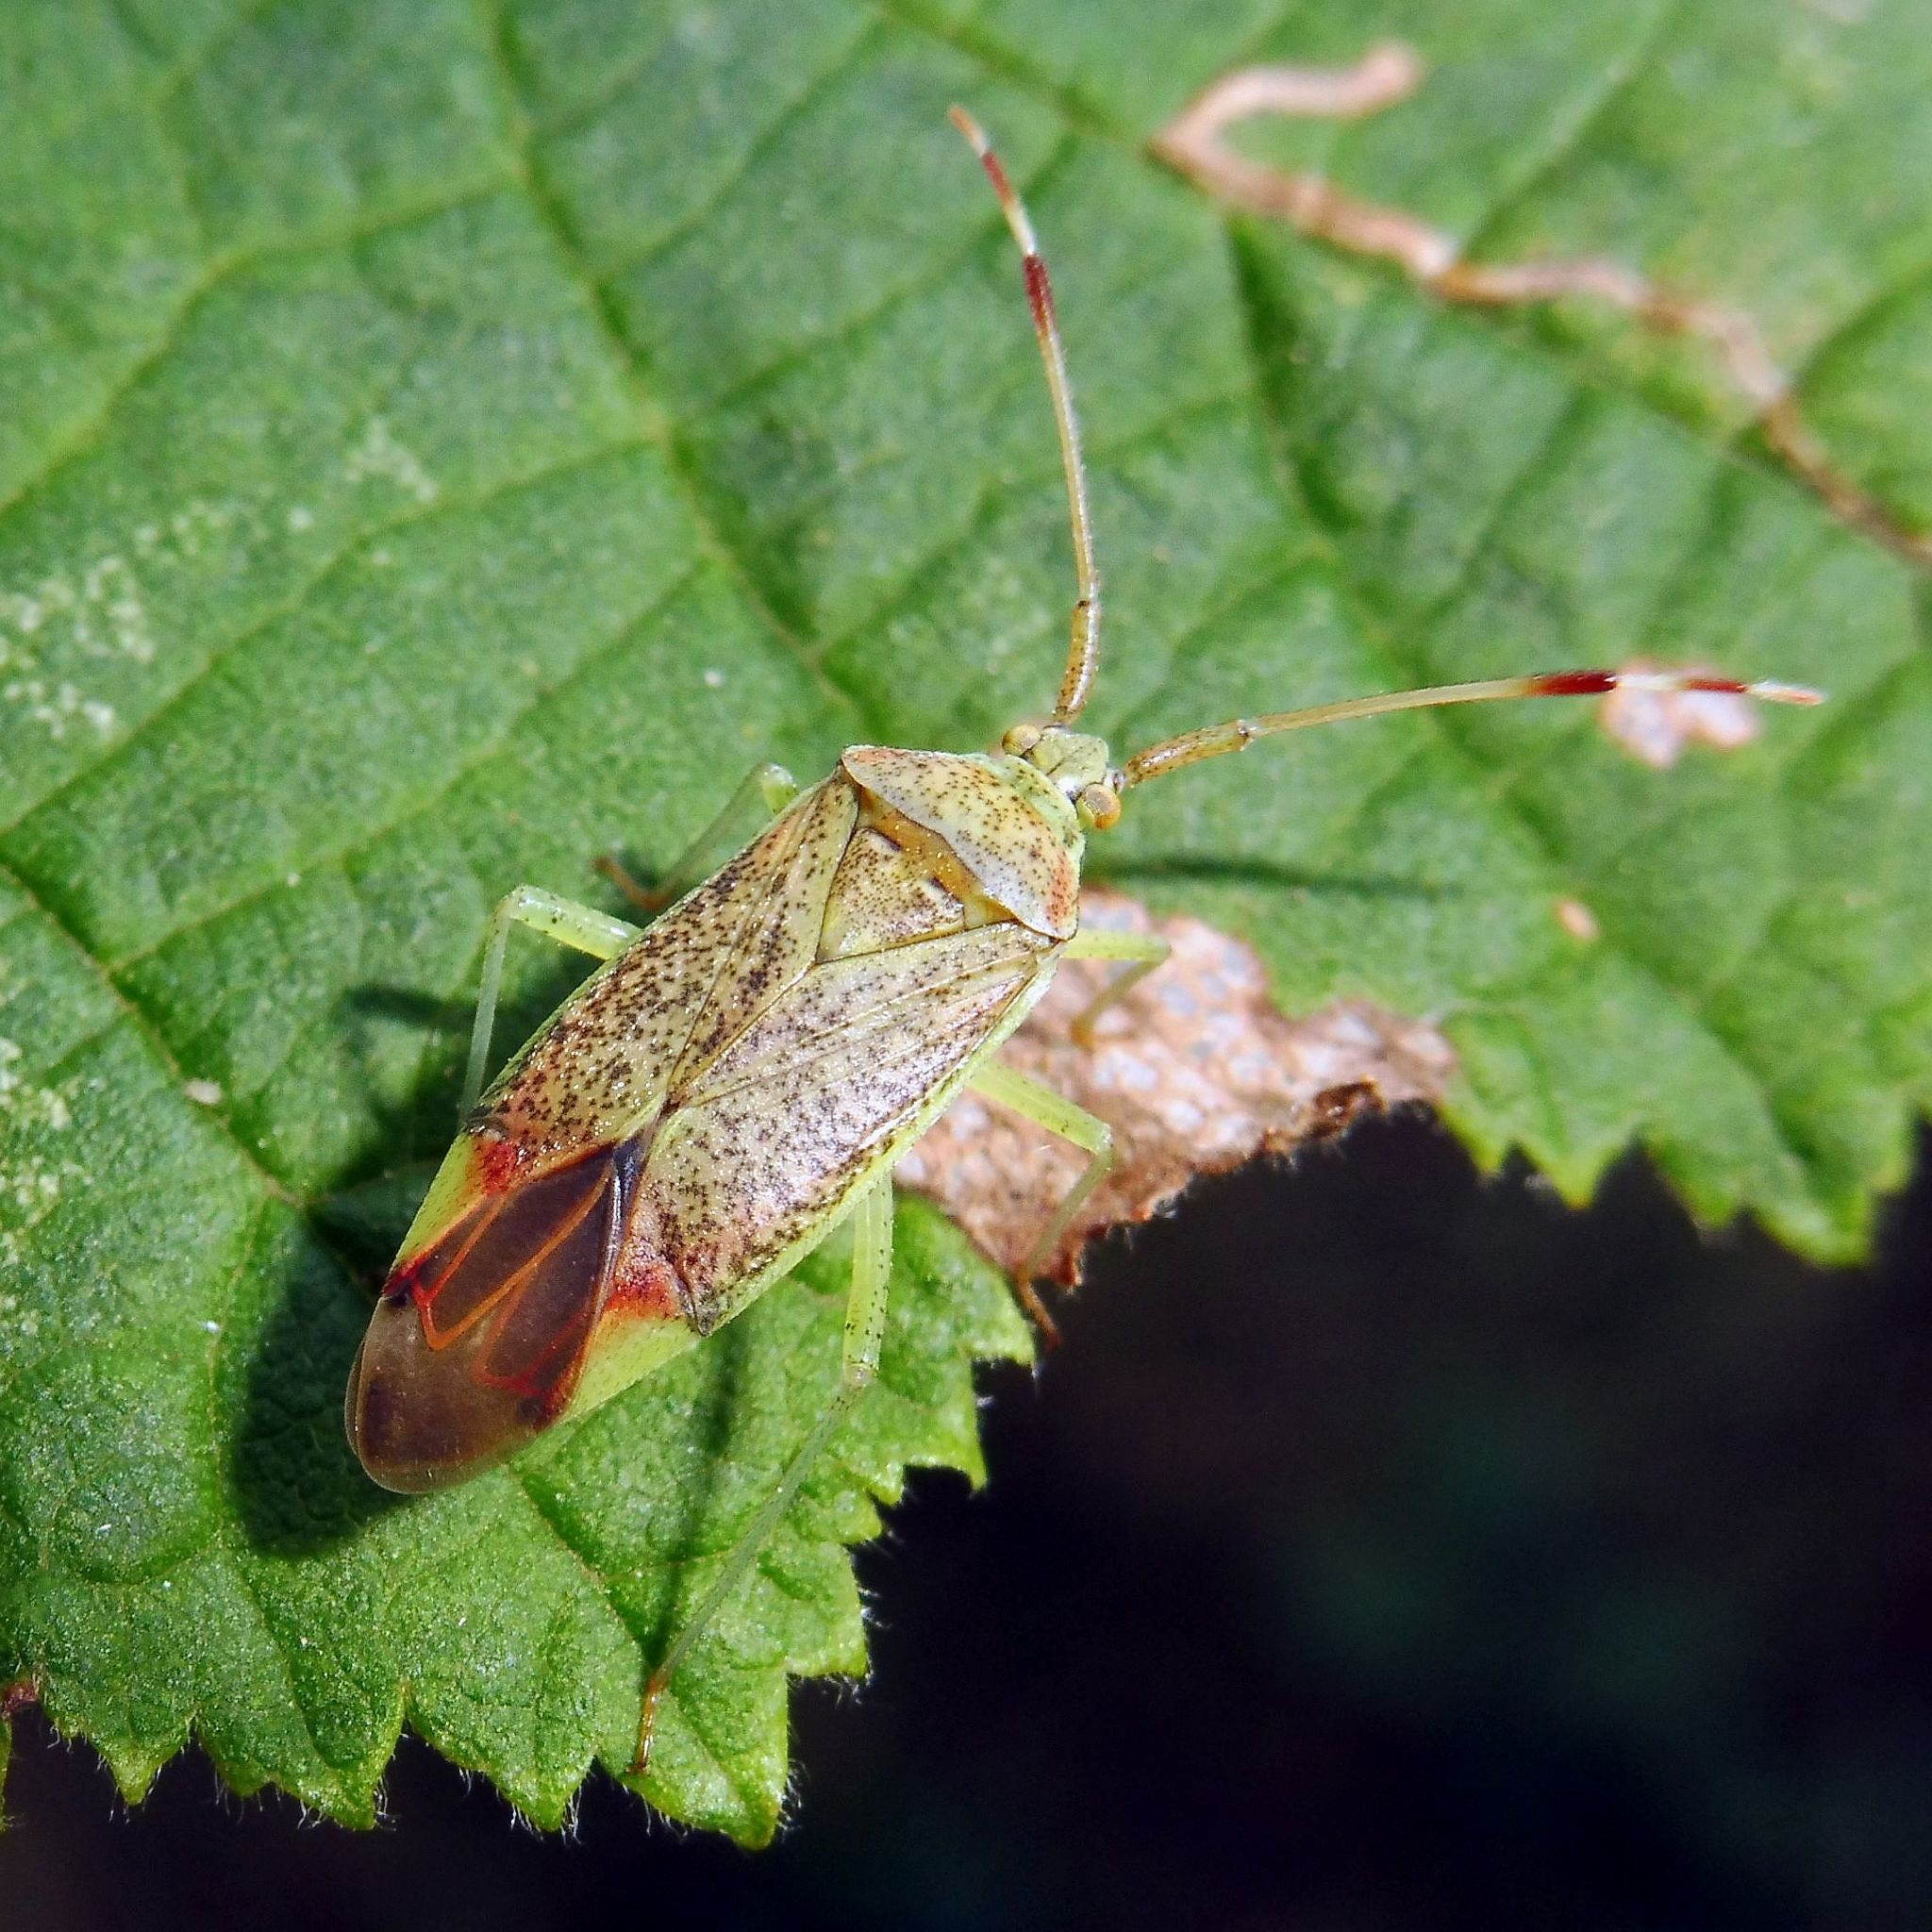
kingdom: Animalia
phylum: Arthropoda
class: Insecta
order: Hemiptera
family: Miridae
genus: Pantilius
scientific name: Pantilius tunicatus
